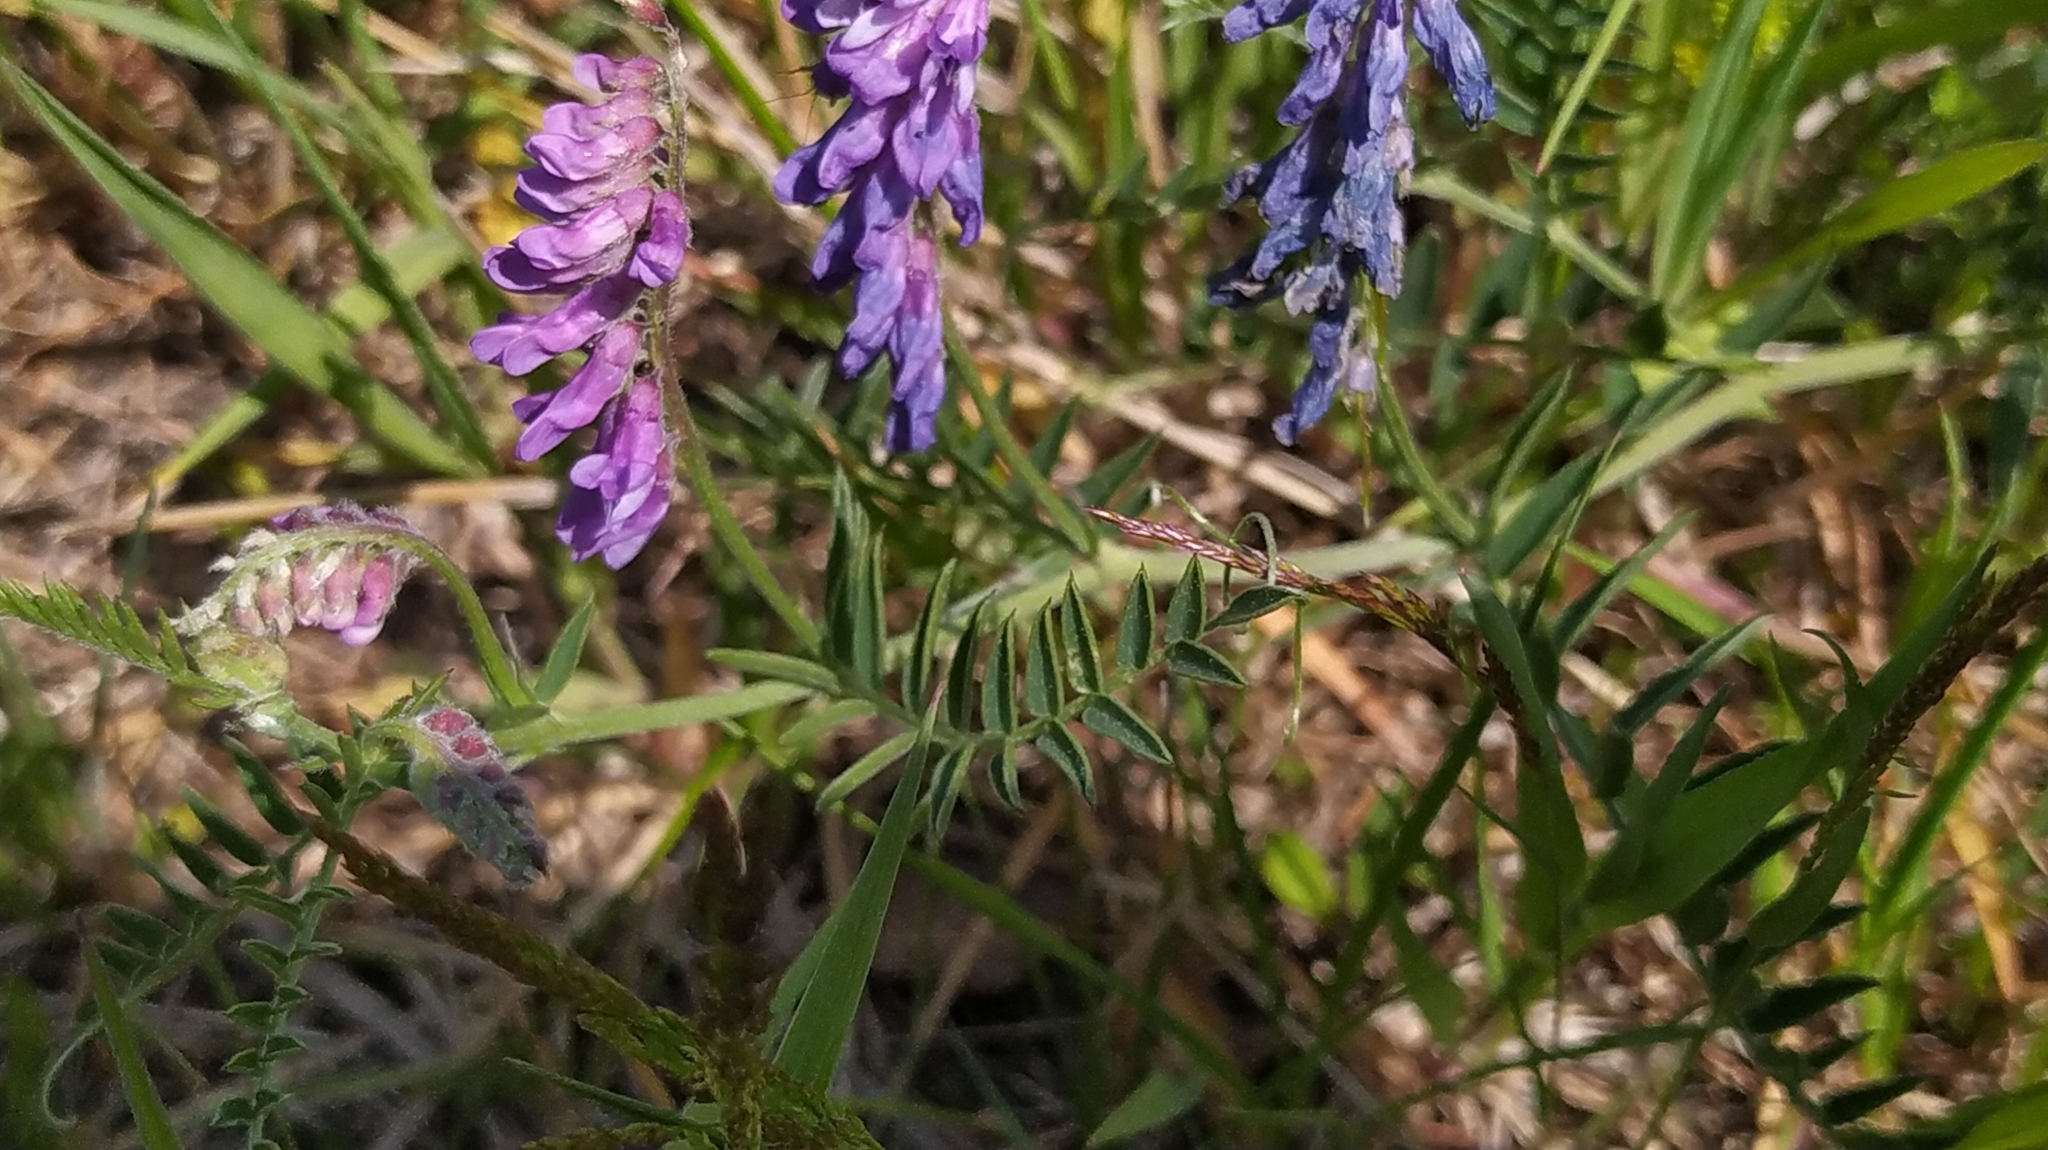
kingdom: Plantae
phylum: Tracheophyta
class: Magnoliopsida
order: Fabales
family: Fabaceae
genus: Vicia
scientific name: Vicia cracca
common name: Bird vetch
